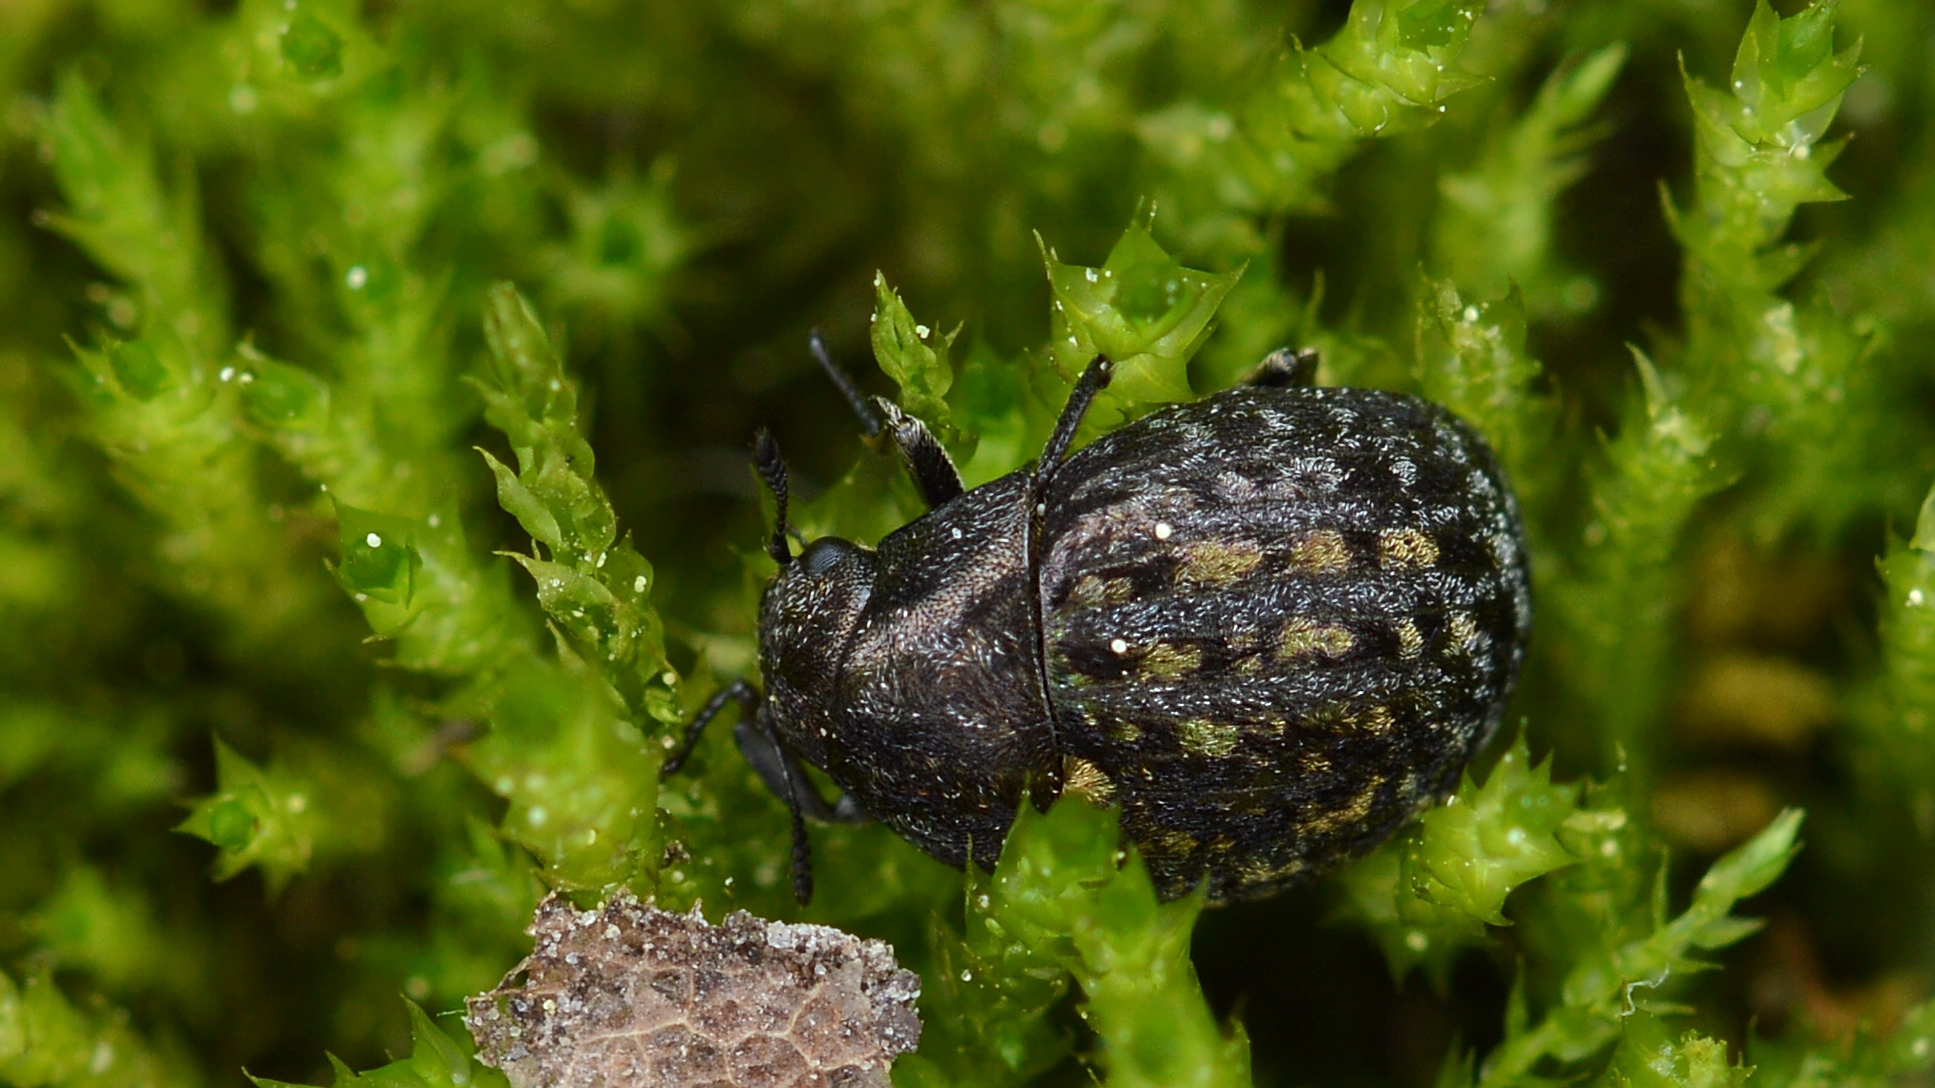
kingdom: Animalia
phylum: Arthropoda
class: Insecta
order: Coleoptera
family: Byrrhidae
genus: Cytilus
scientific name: Cytilus alternatus
